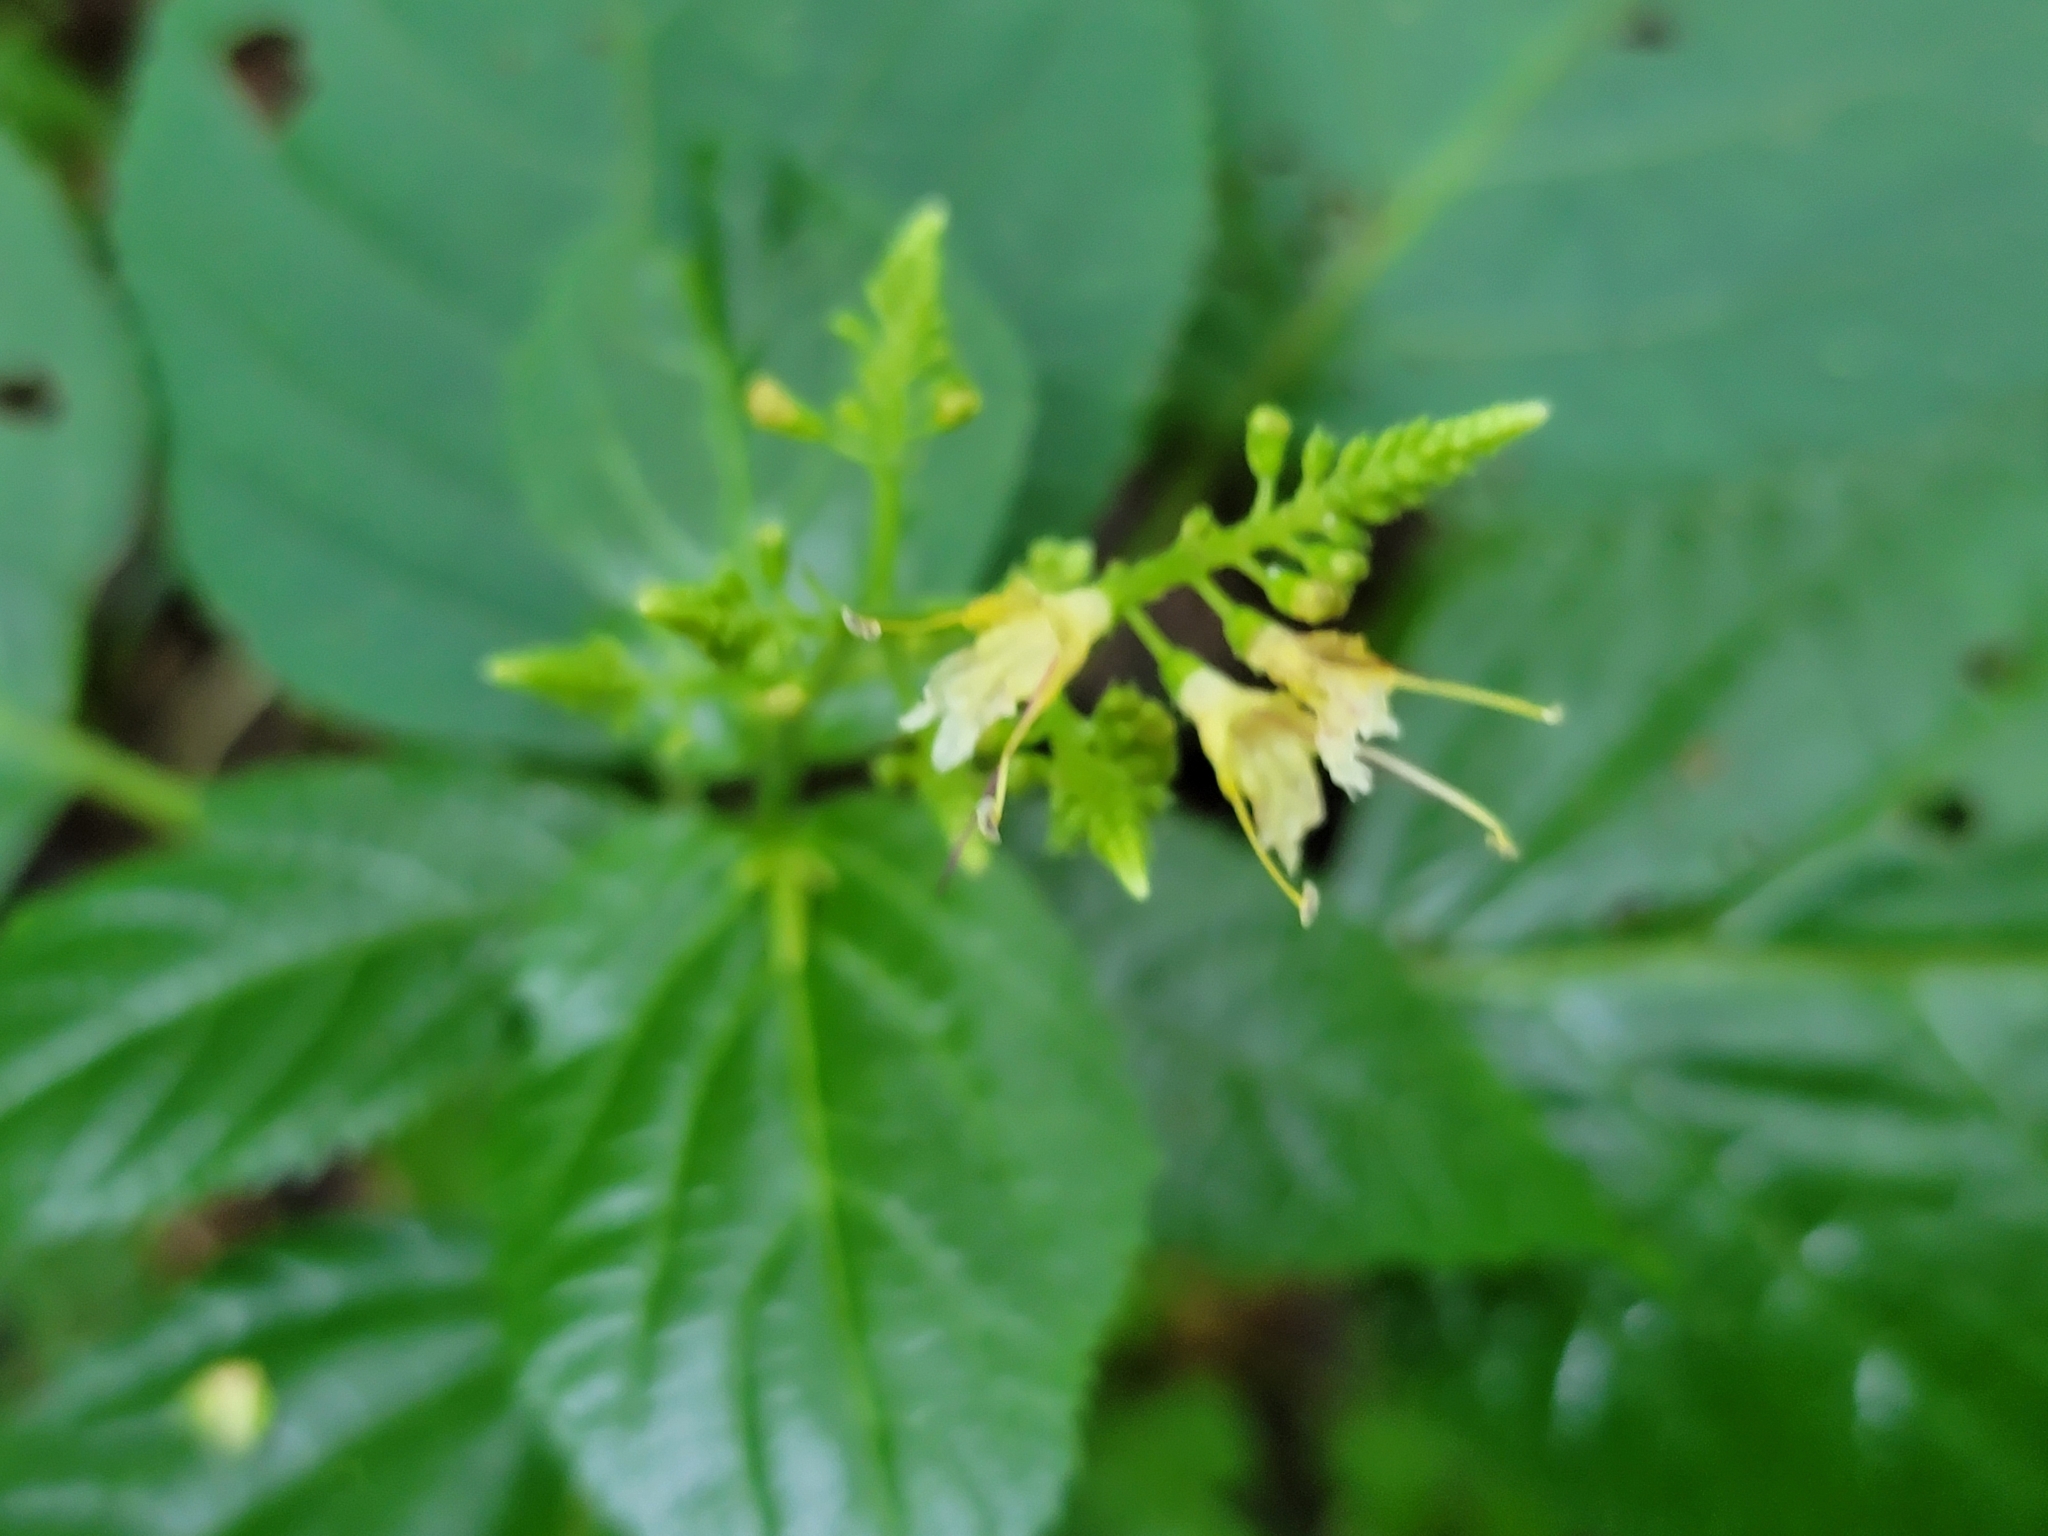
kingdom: Plantae
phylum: Tracheophyta
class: Magnoliopsida
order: Lamiales
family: Lamiaceae
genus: Collinsonia
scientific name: Collinsonia canadensis
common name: Northern horsebalm
